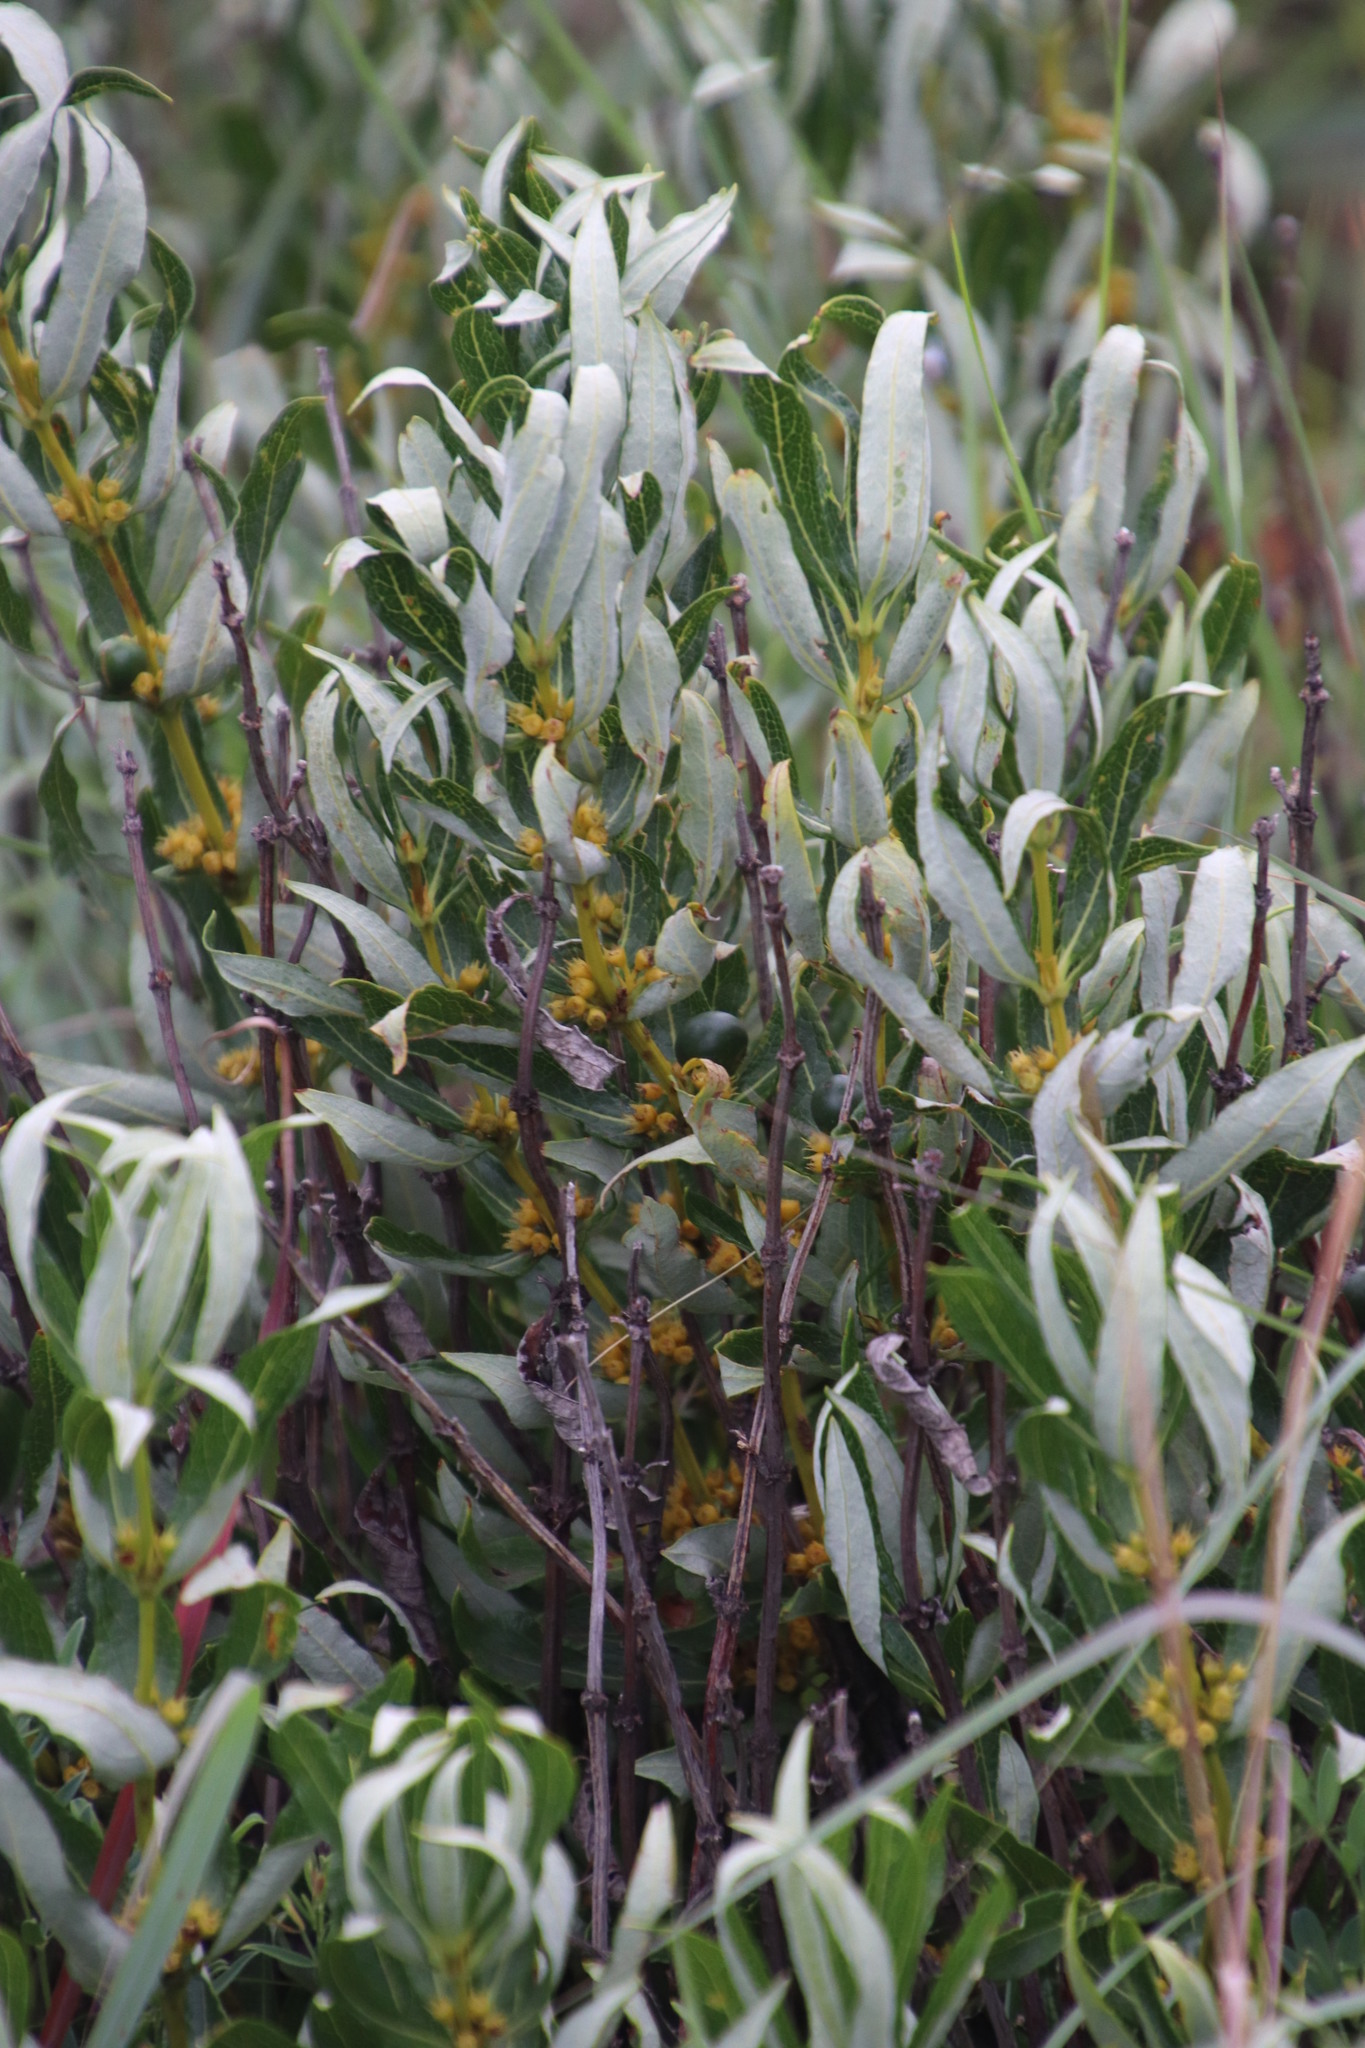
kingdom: Plantae
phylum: Tracheophyta
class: Magnoliopsida
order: Gentianales
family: Rubiaceae
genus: Fadogia
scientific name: Fadogia homblei
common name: Wild date
